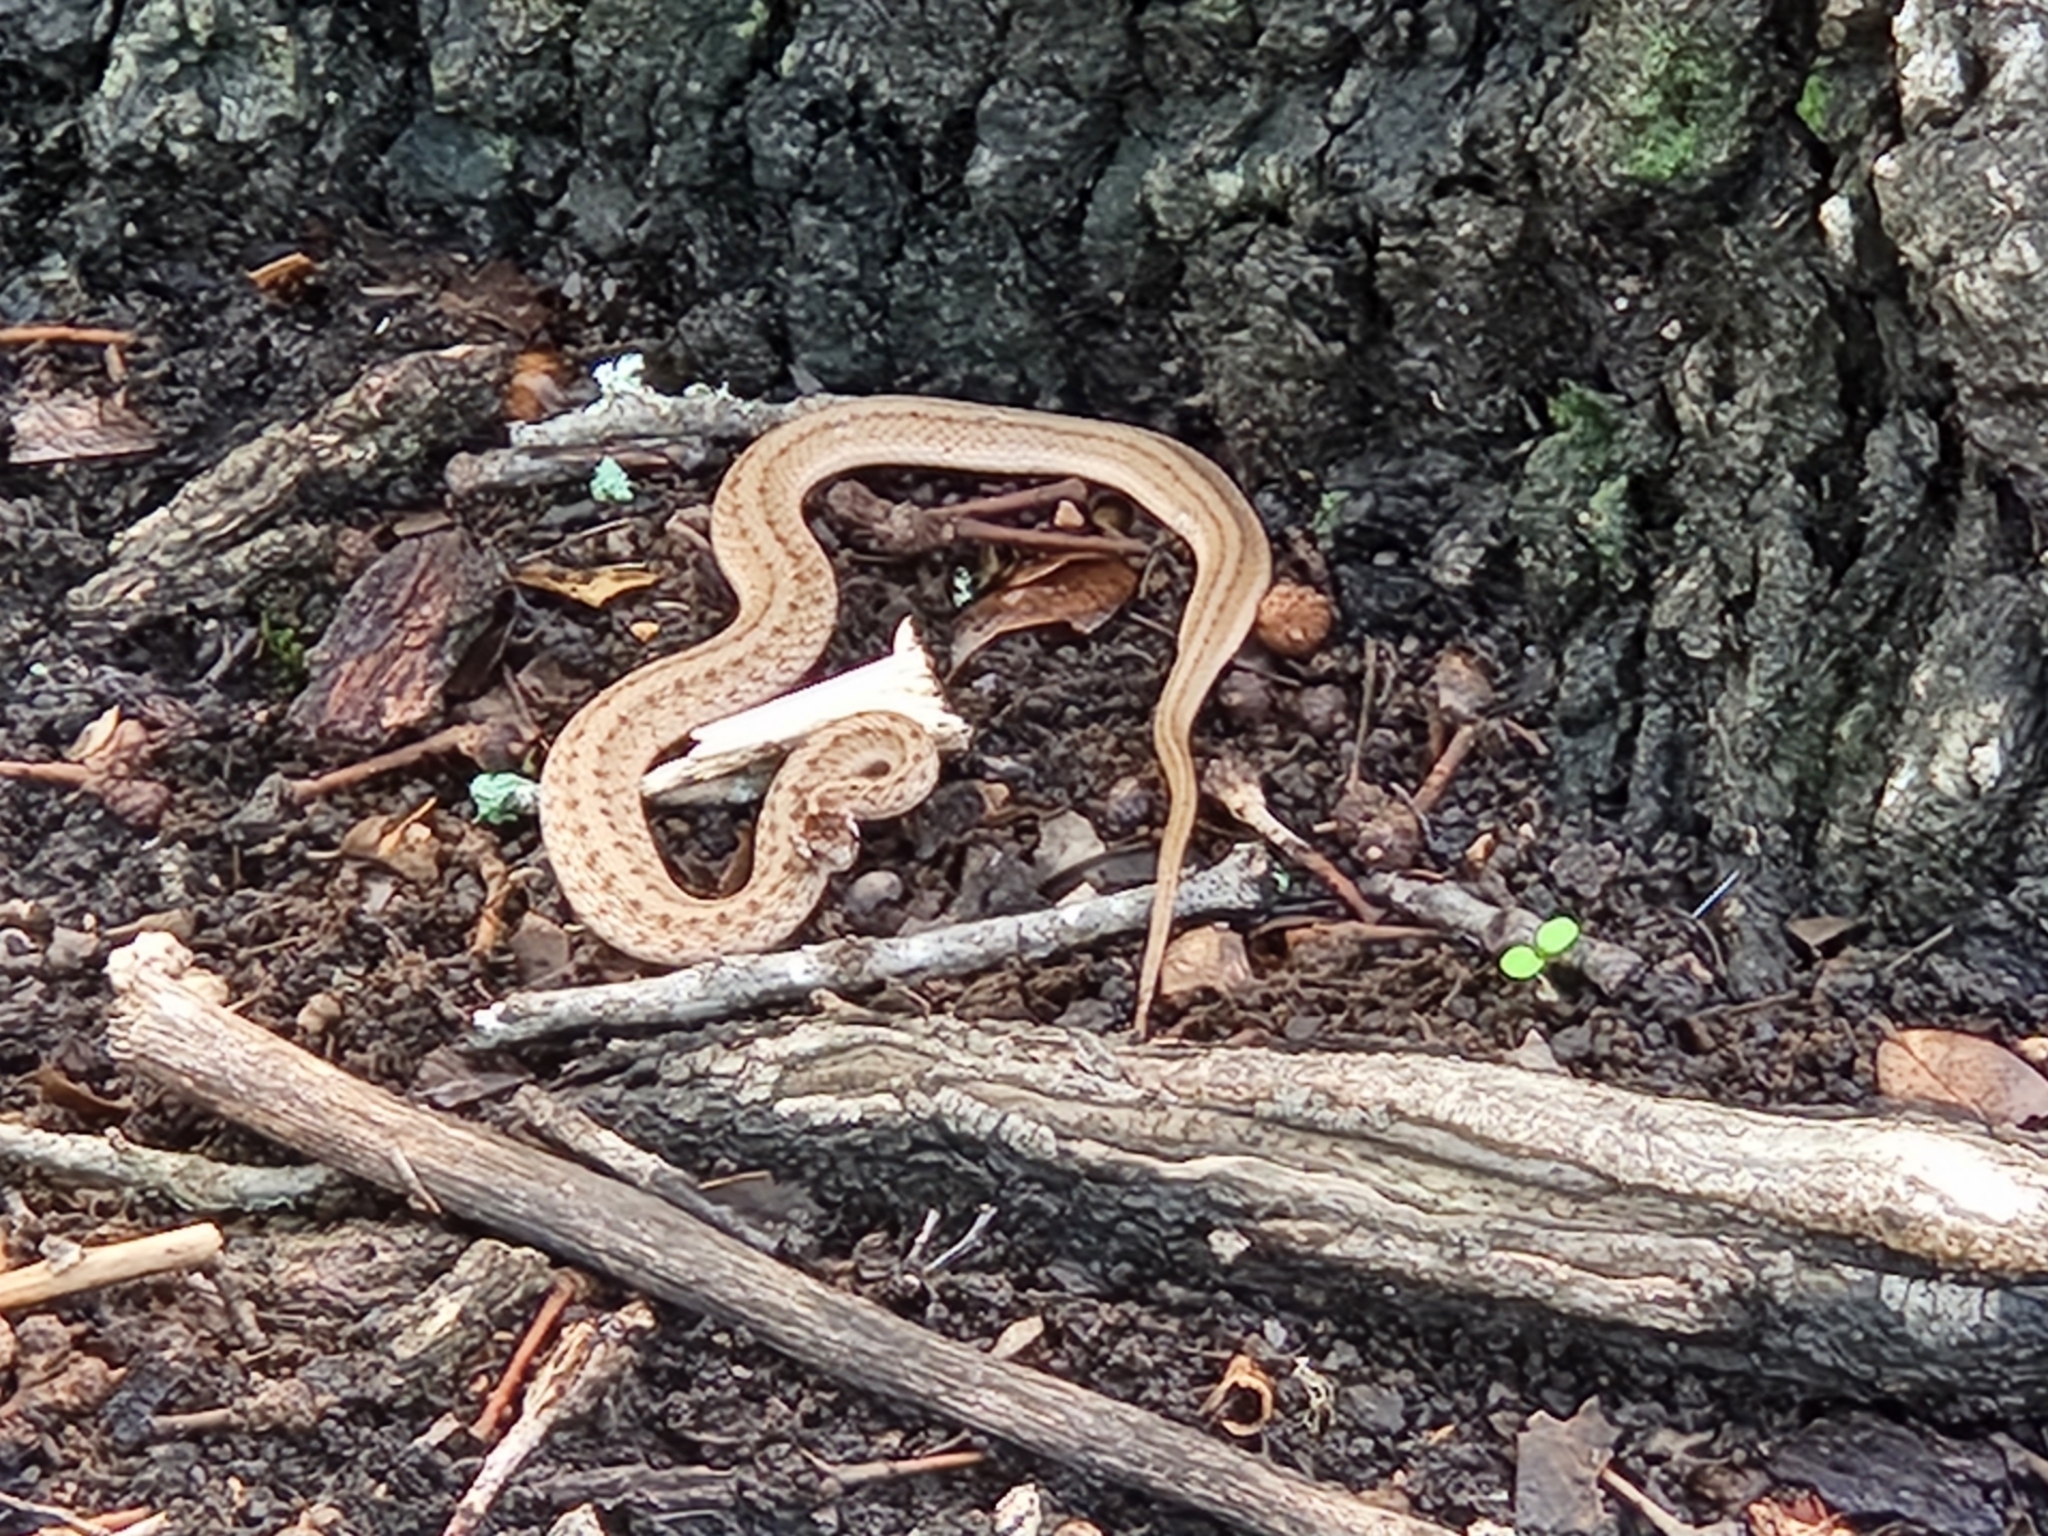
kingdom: Animalia
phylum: Chordata
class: Squamata
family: Colubridae
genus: Storeria
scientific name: Storeria dekayi
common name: (dekay’s) brown snake
